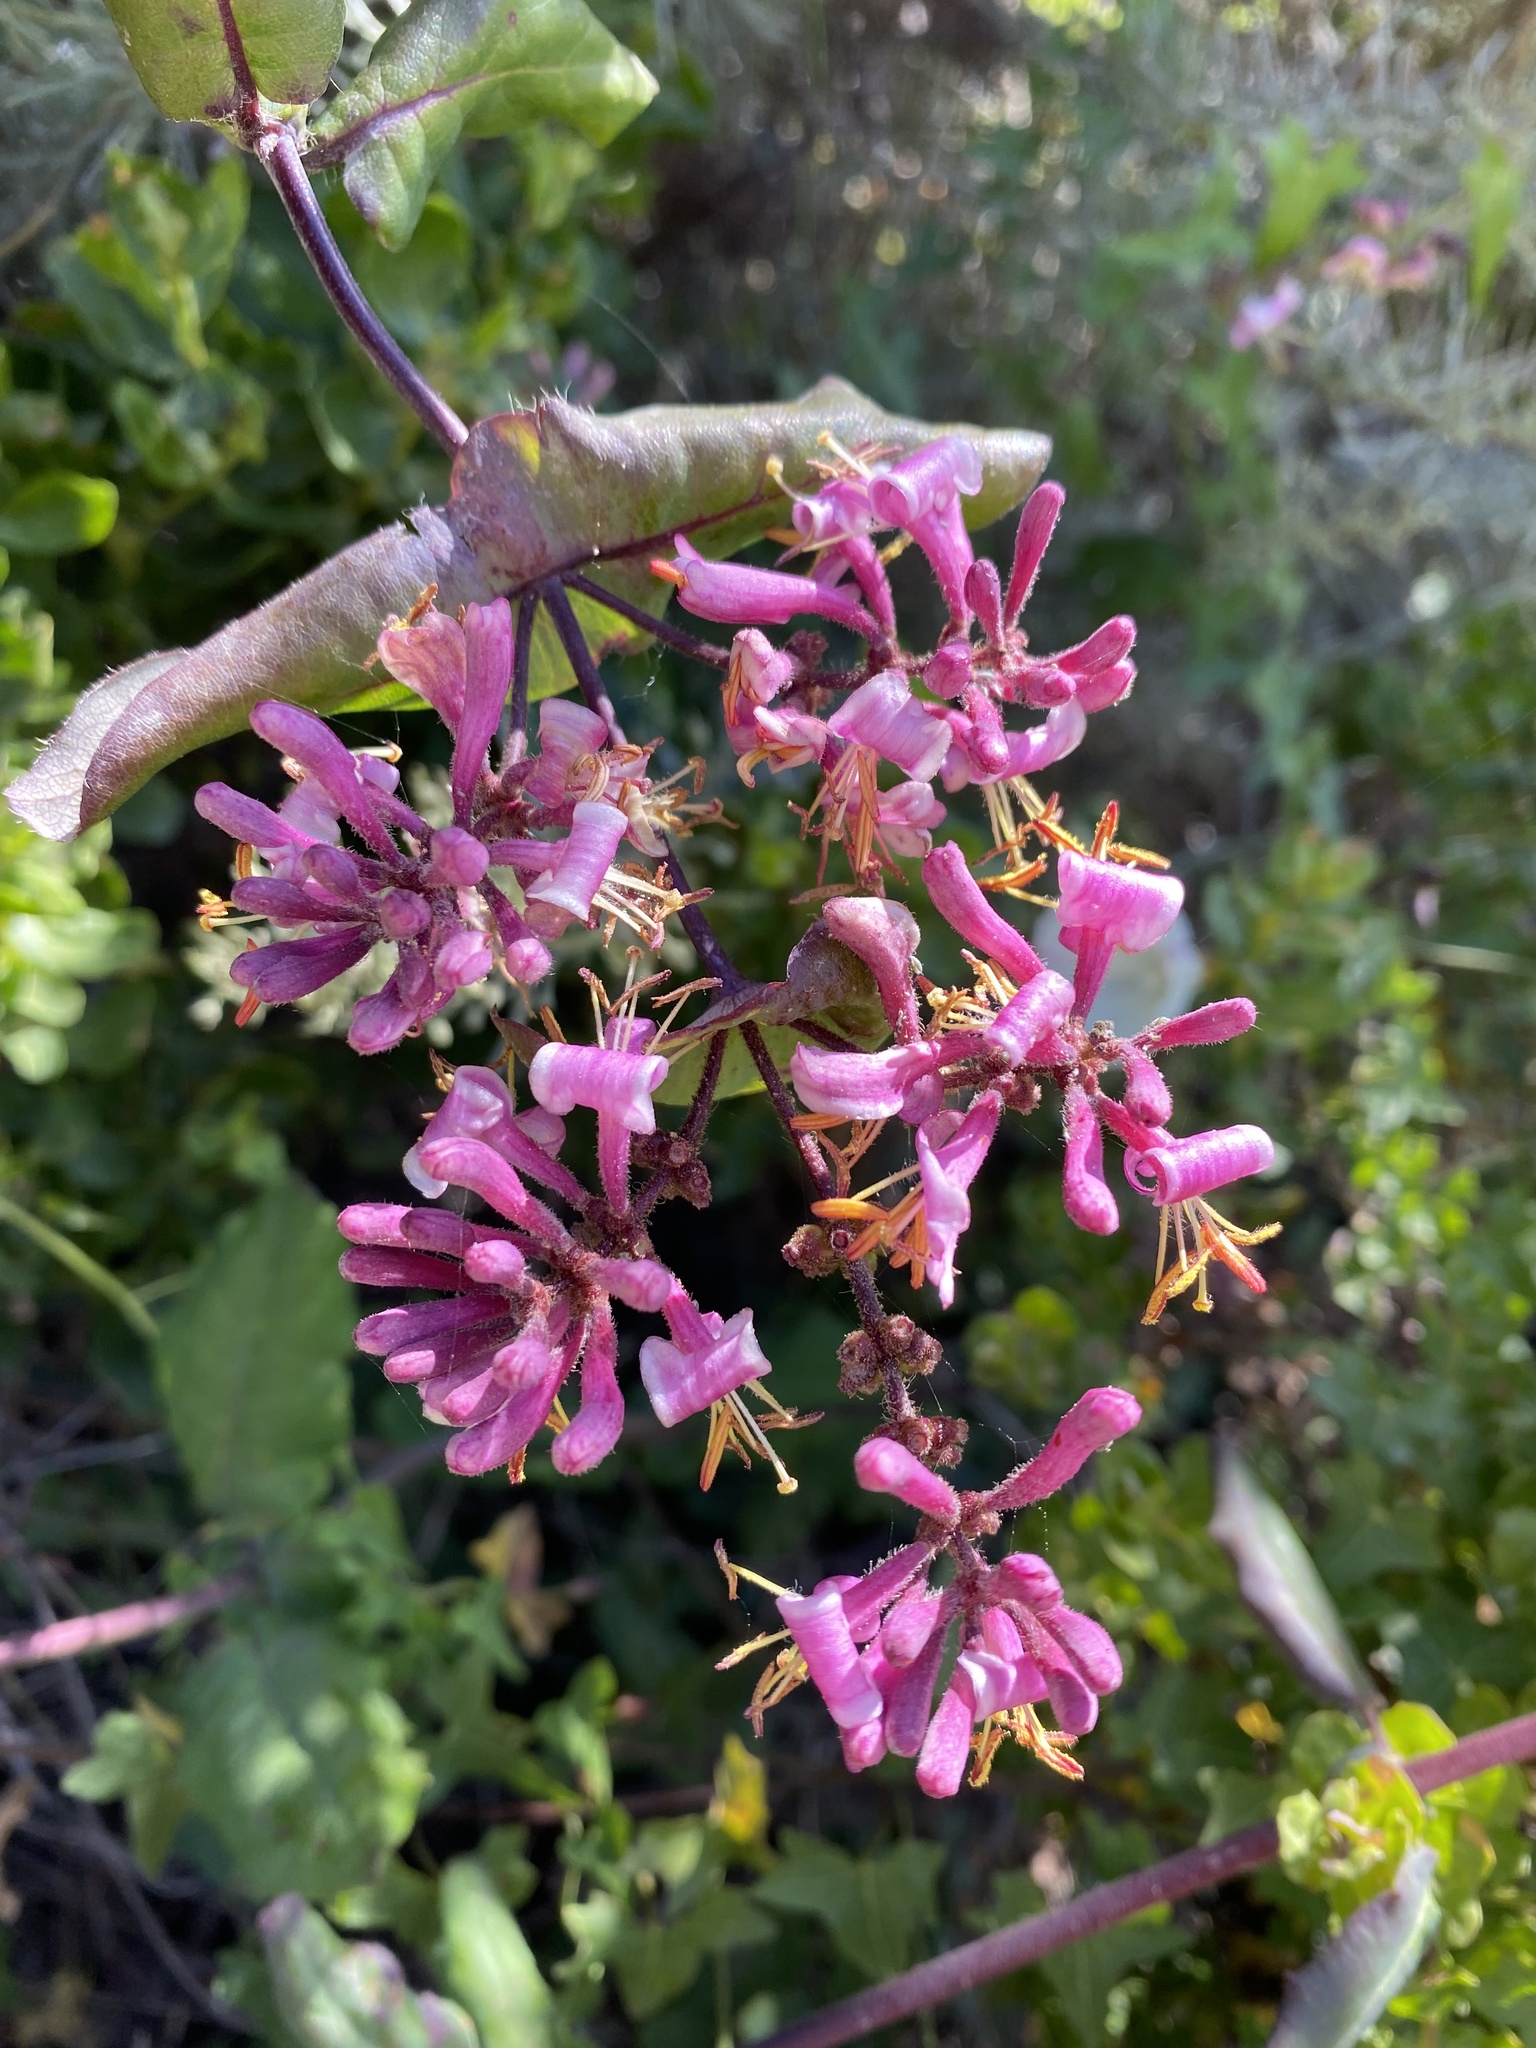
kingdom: Plantae
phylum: Tracheophyta
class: Magnoliopsida
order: Dipsacales
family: Caprifoliaceae
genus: Lonicera
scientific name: Lonicera hispidula
